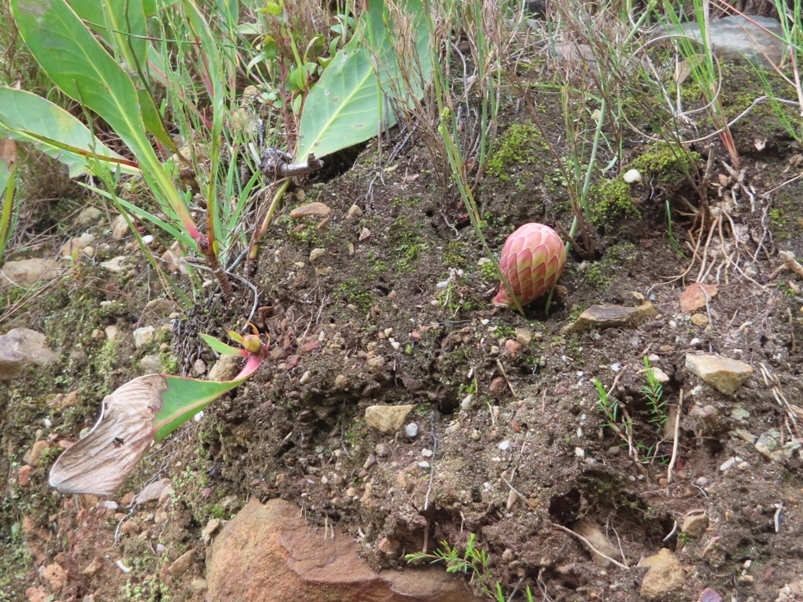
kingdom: Plantae
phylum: Tracheophyta
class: Magnoliopsida
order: Proteales
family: Proteaceae
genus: Protea
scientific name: Protea acaulos
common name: Common ground sugarbush
